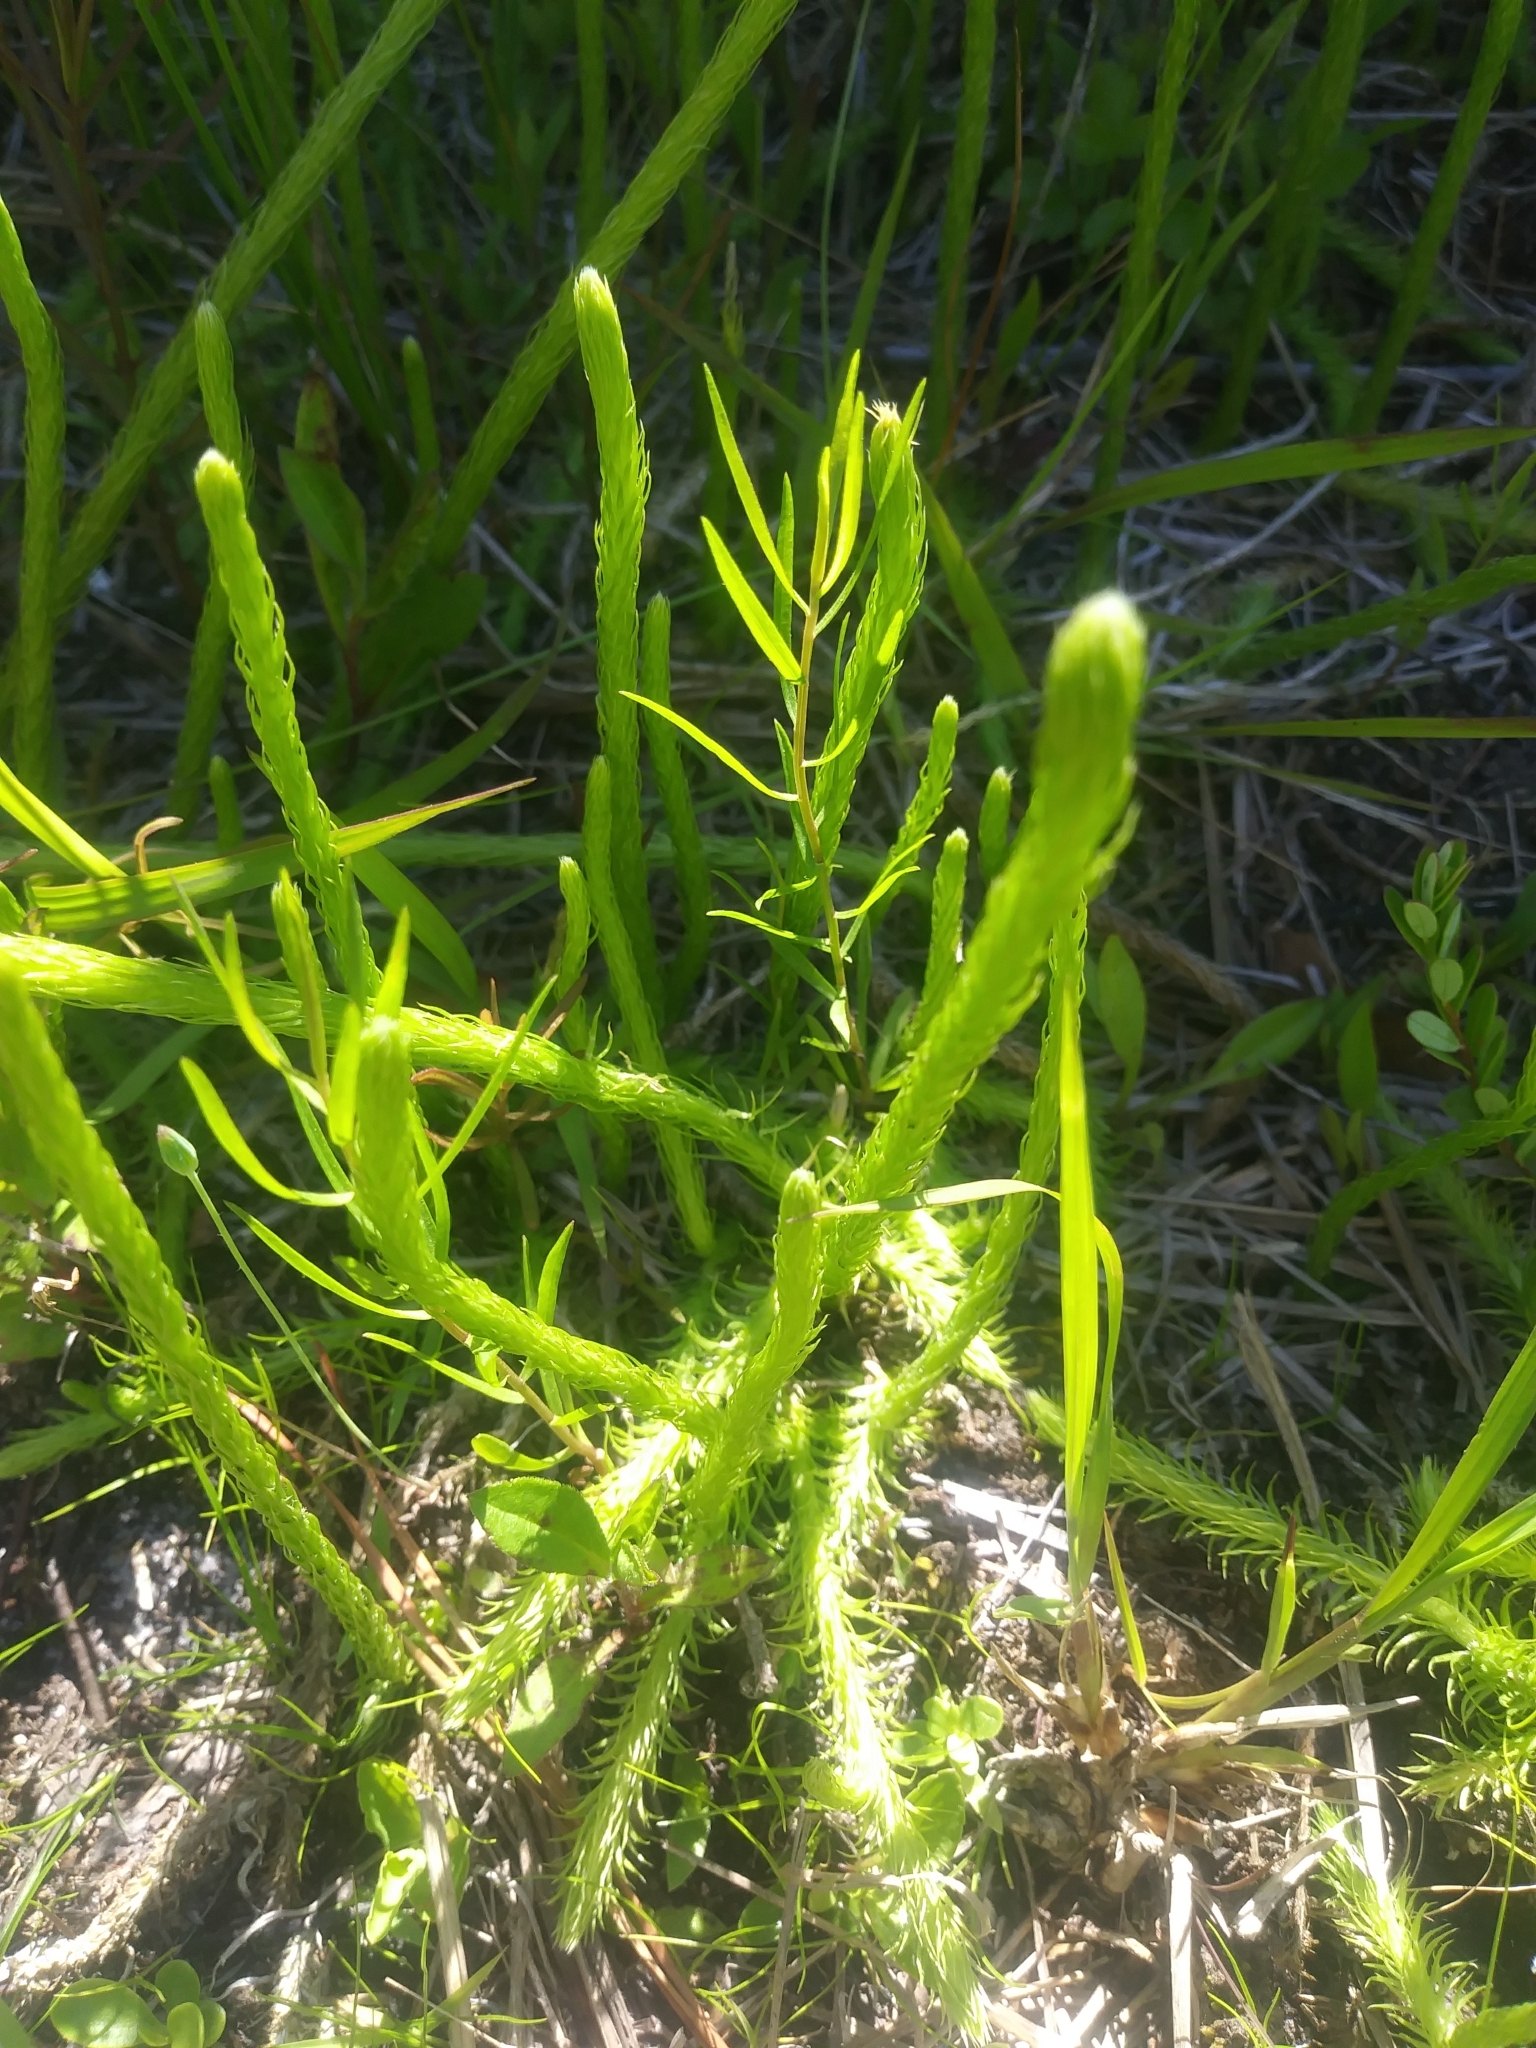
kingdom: Plantae
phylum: Tracheophyta
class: Lycopodiopsida
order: Lycopodiales
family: Lycopodiaceae
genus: Lycopodiella
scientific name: Lycopodiella alopecuroides
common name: Foxtail clubmoss
